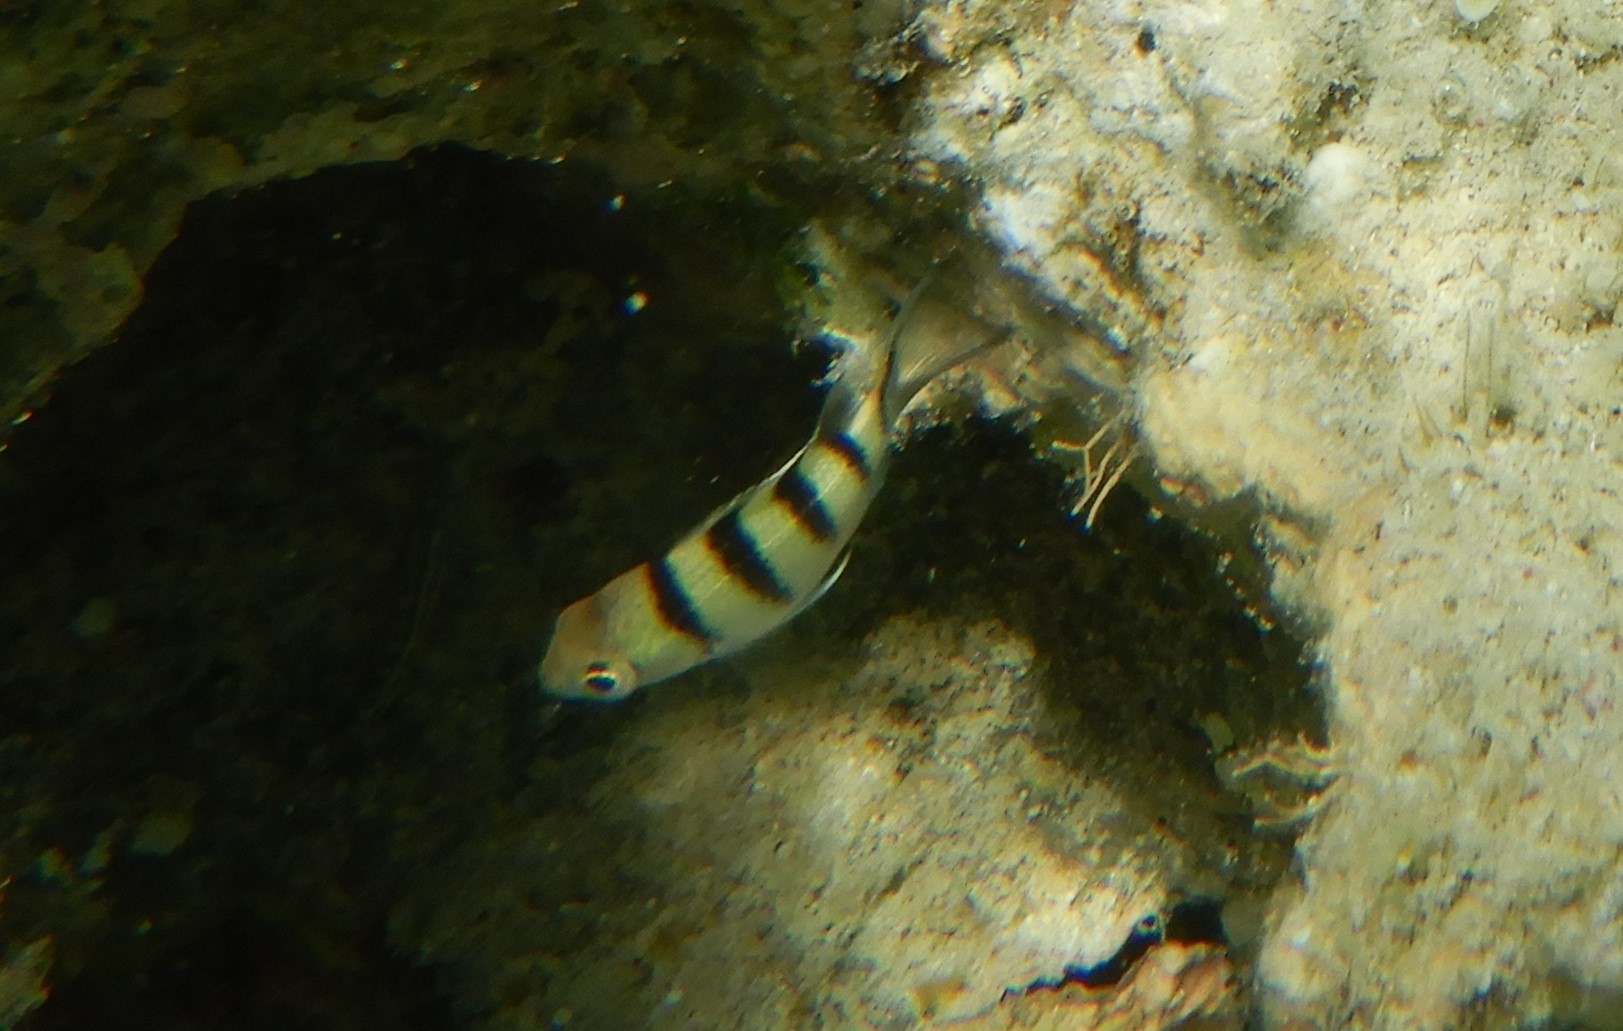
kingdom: Animalia
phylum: Chordata
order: Perciformes
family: Pomacentridae
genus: Abudefduf
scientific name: Abudefduf sexfasciatus
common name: Scissortail sergeant
